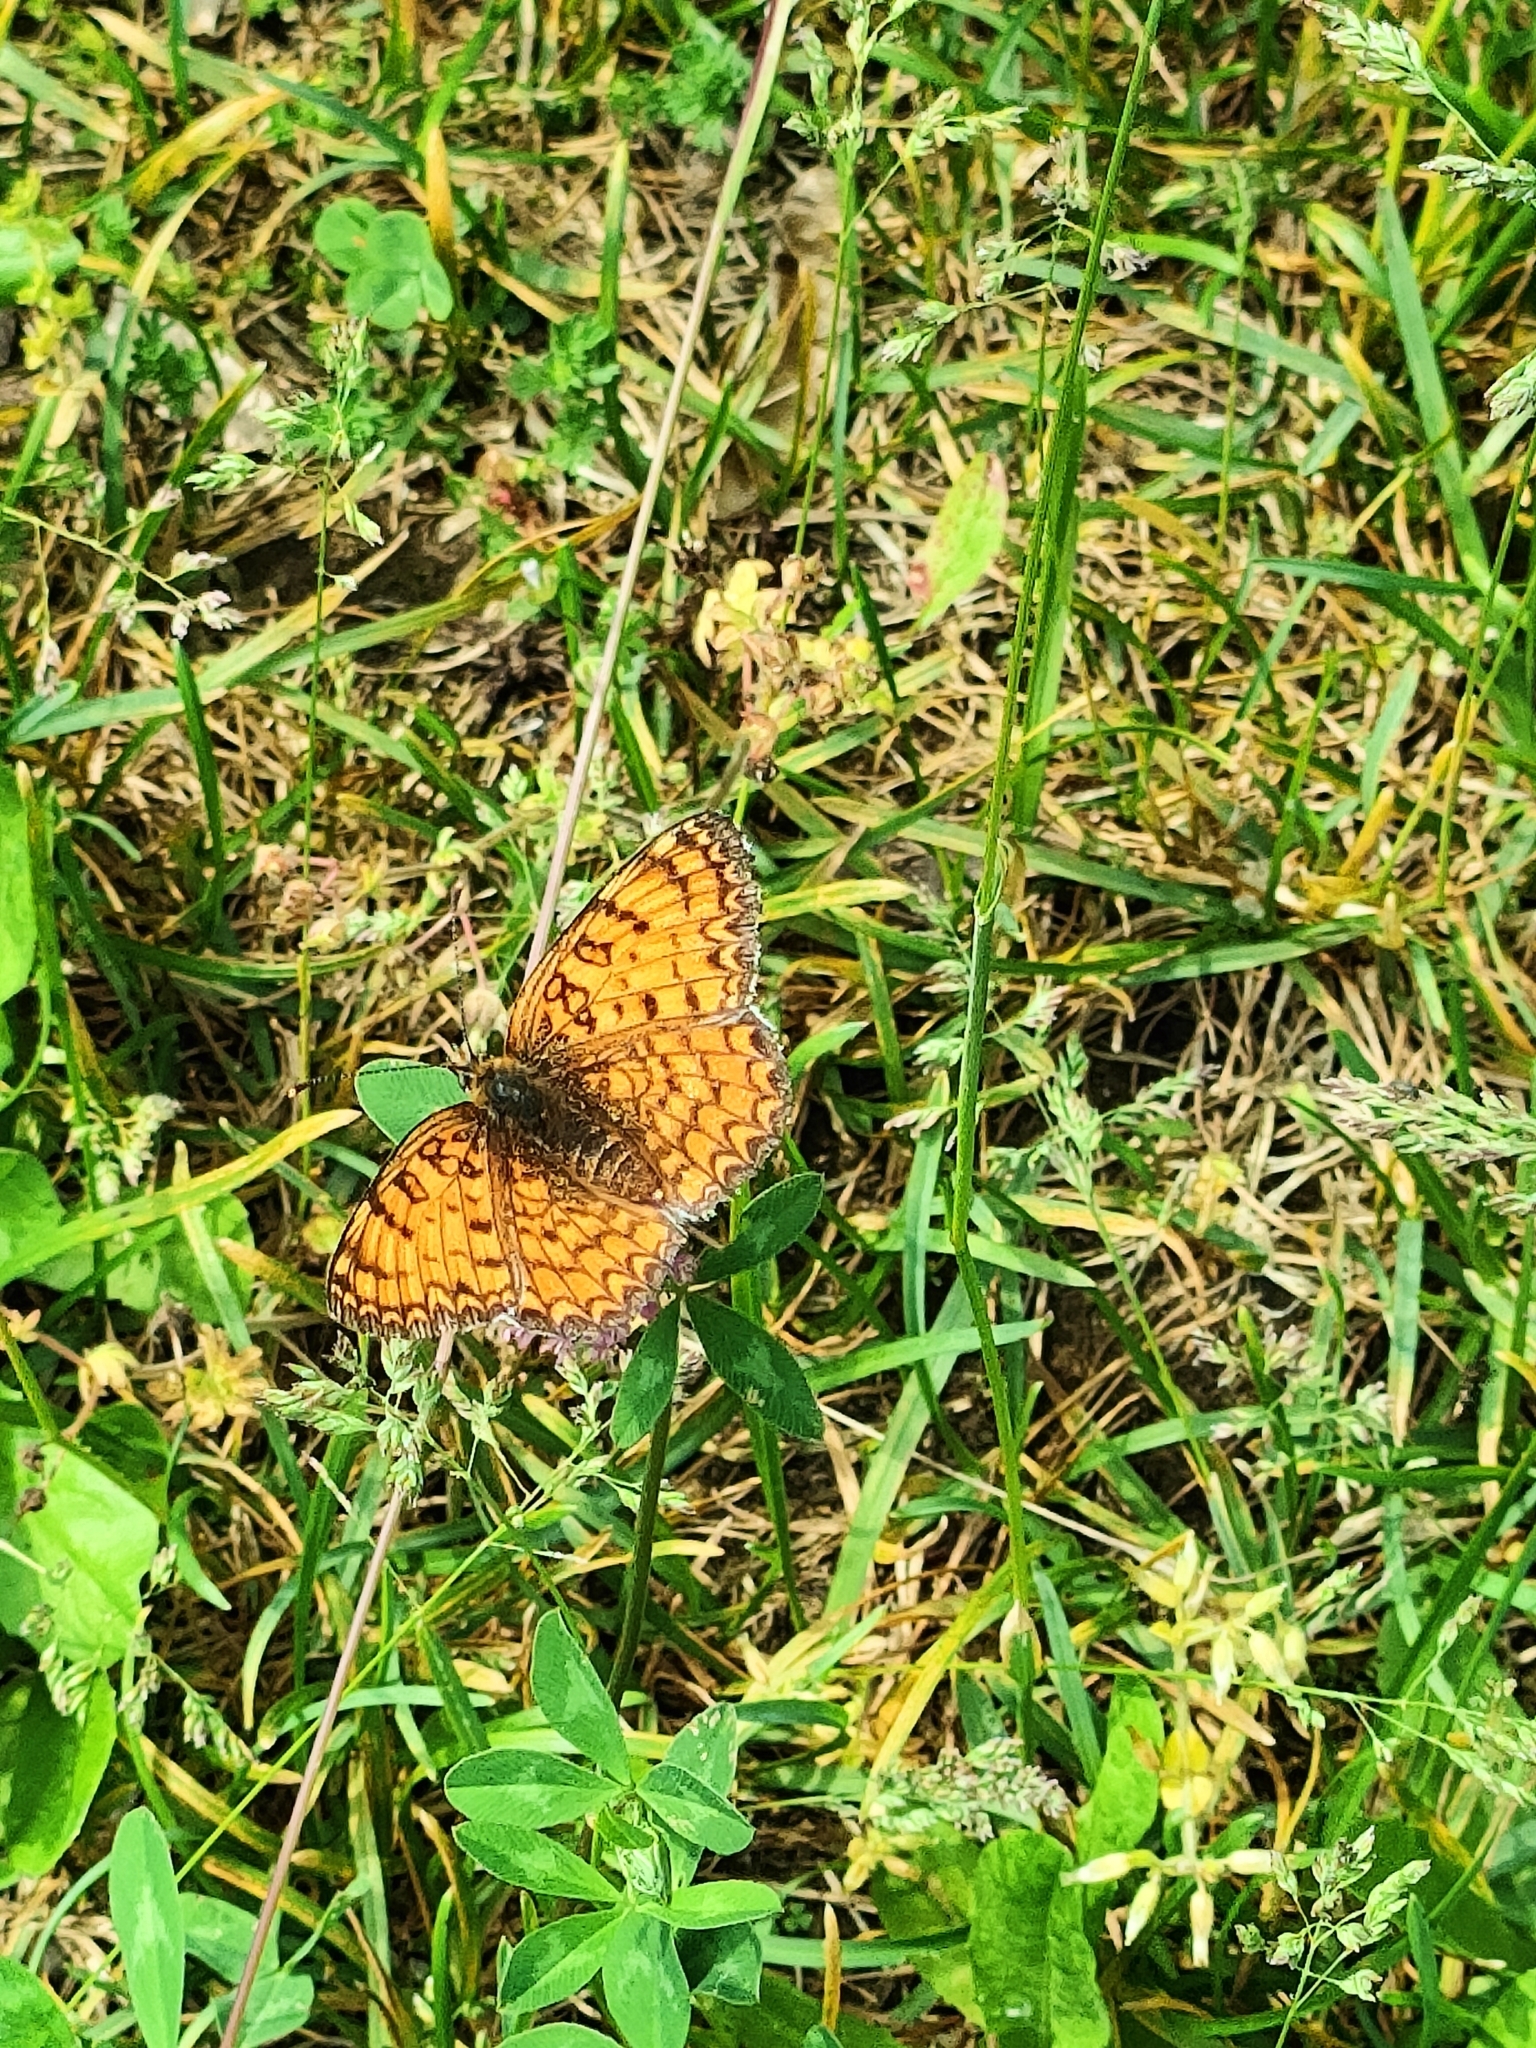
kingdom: Animalia
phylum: Arthropoda
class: Insecta
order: Lepidoptera
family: Nymphalidae
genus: Melitaea
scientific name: Melitaea phoebe
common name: Knapweed fritillary
